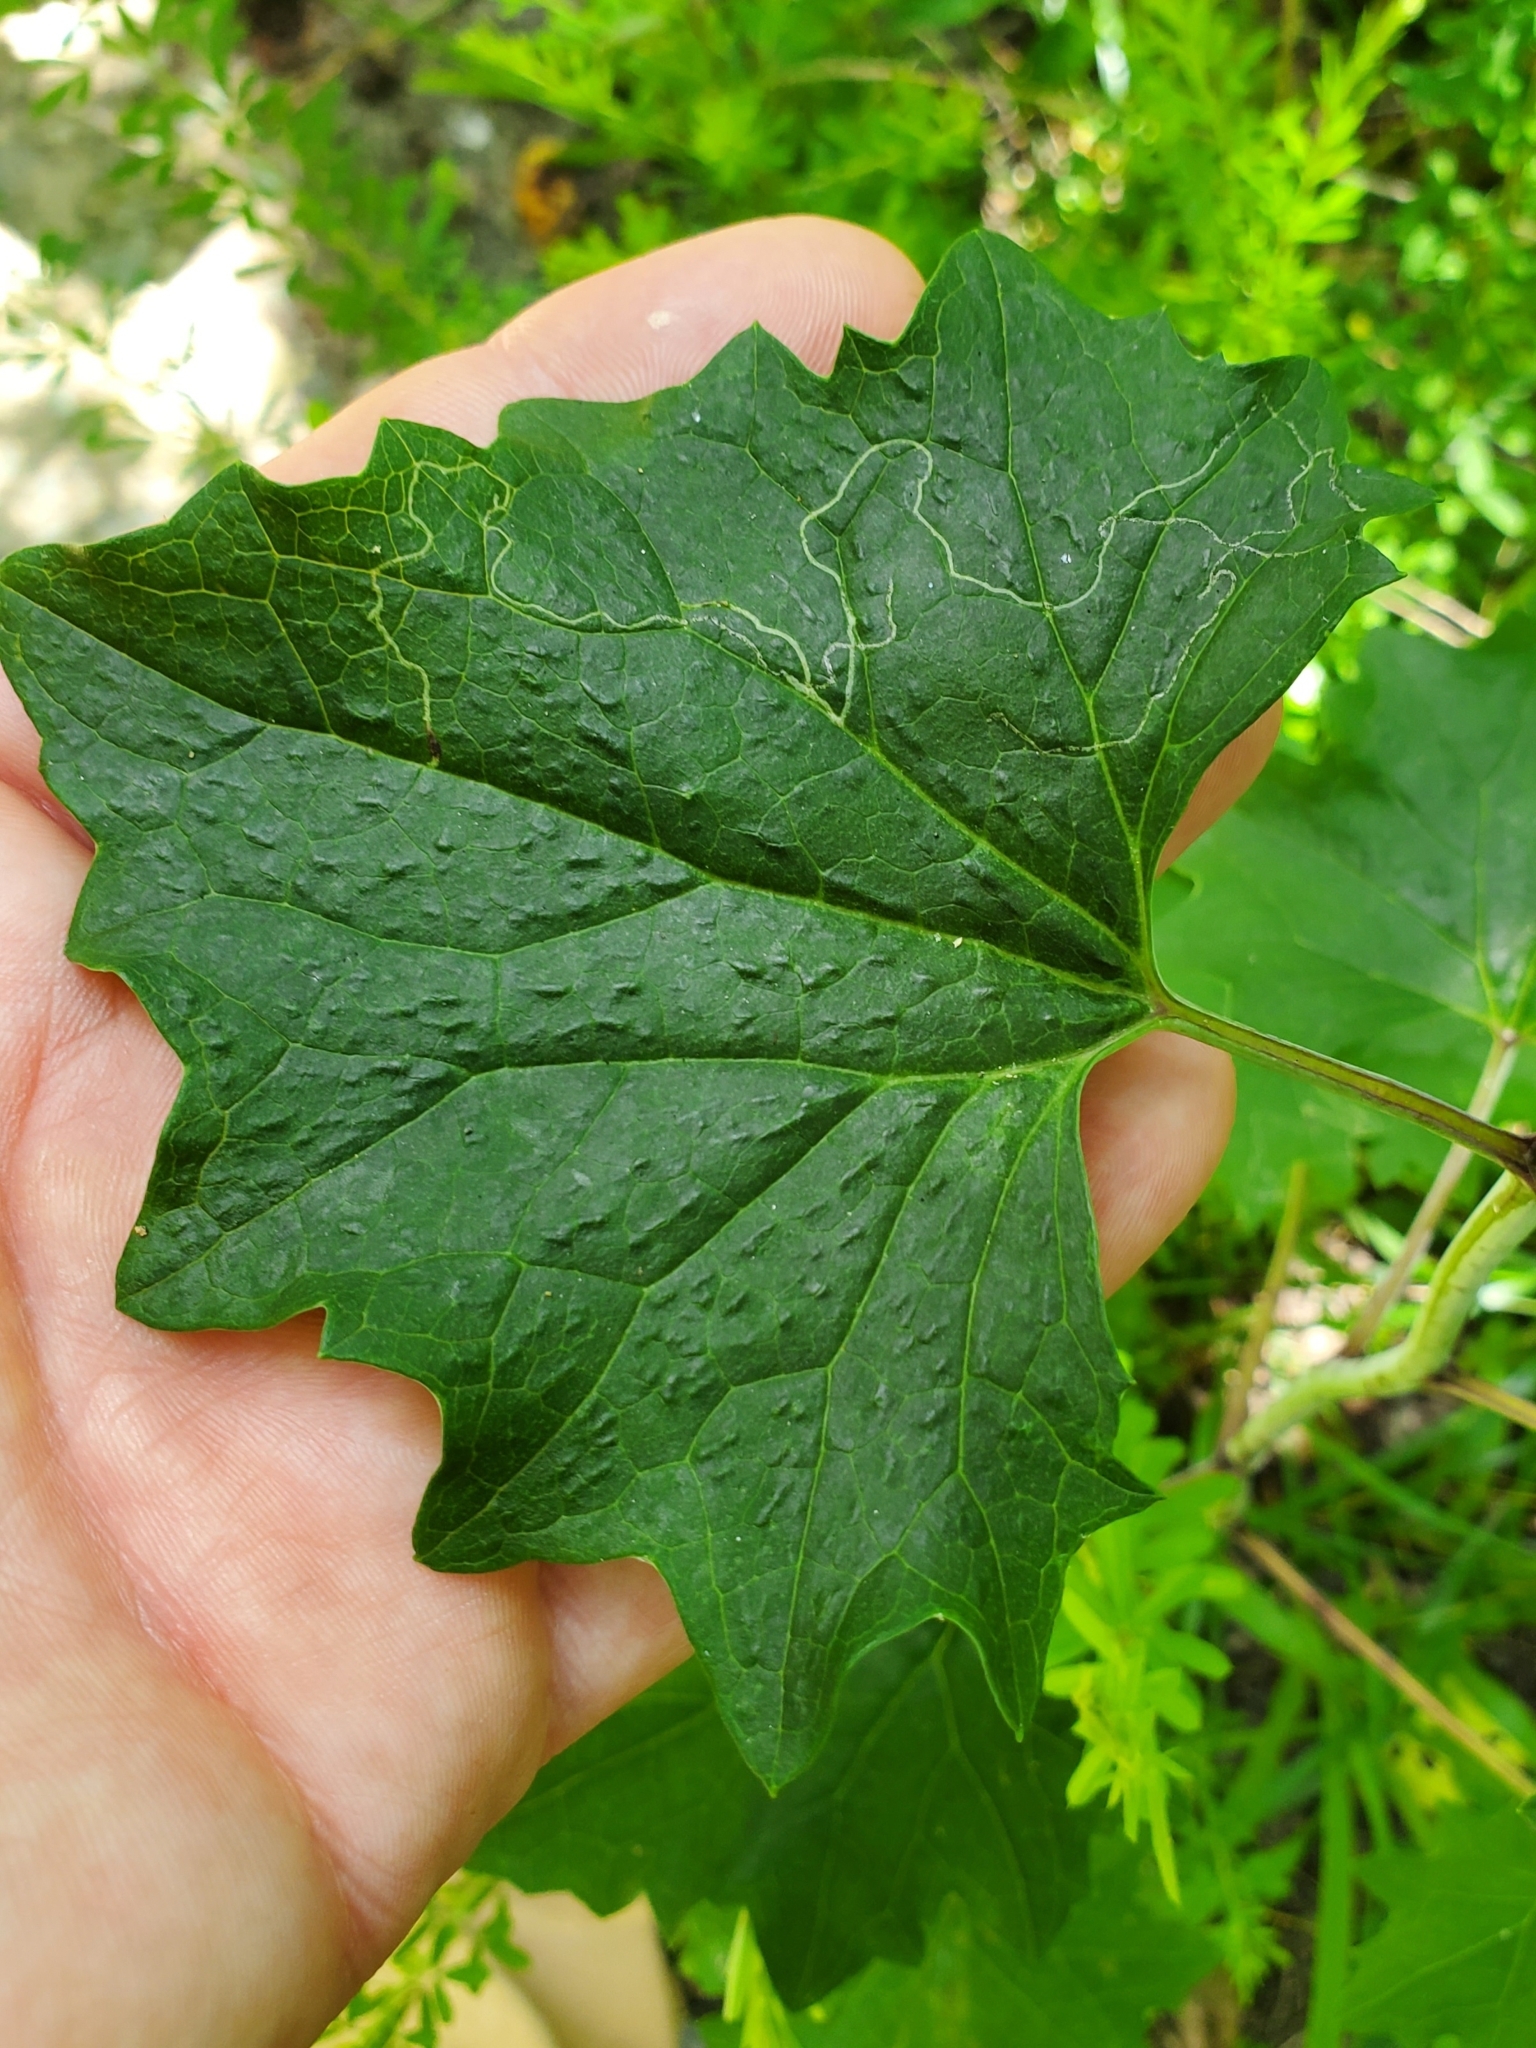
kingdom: Animalia
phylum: Arthropoda
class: Insecta
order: Lepidoptera
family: Gracillariidae
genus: Phyllocnistis
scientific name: Phyllocnistis insignis
